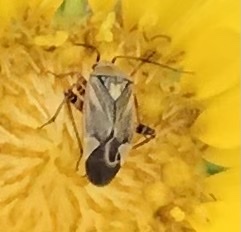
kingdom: Animalia
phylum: Arthropoda
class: Insecta
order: Hemiptera
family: Miridae
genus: Polymerus
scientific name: Polymerus basalis
